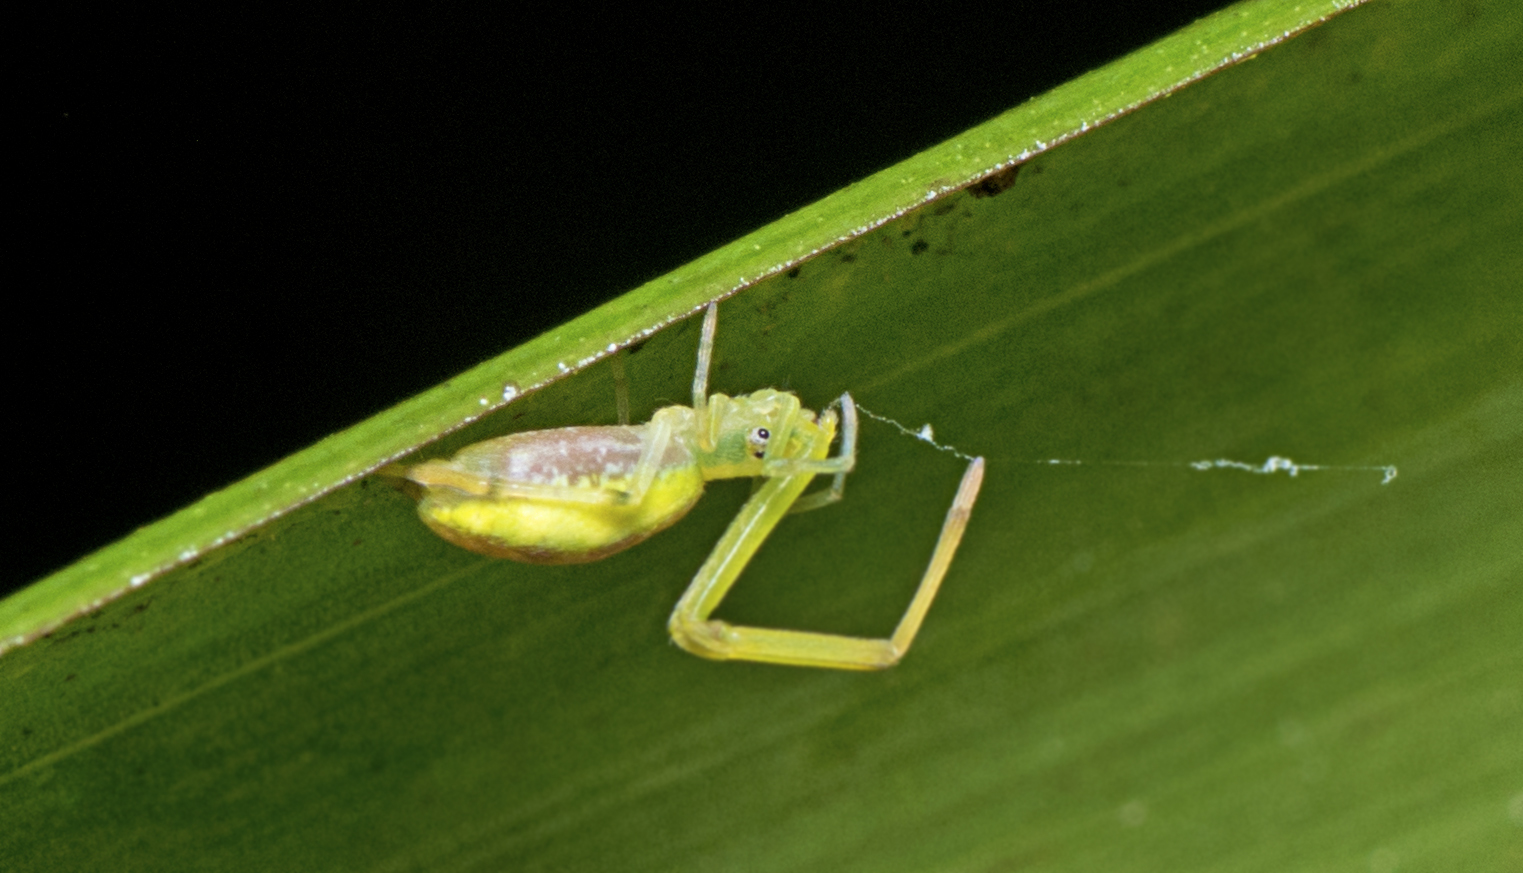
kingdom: Animalia
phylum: Arthropoda
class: Arachnida
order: Araneae
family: Uloboridae
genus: Miagrammopes
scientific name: Miagrammopes flavus
